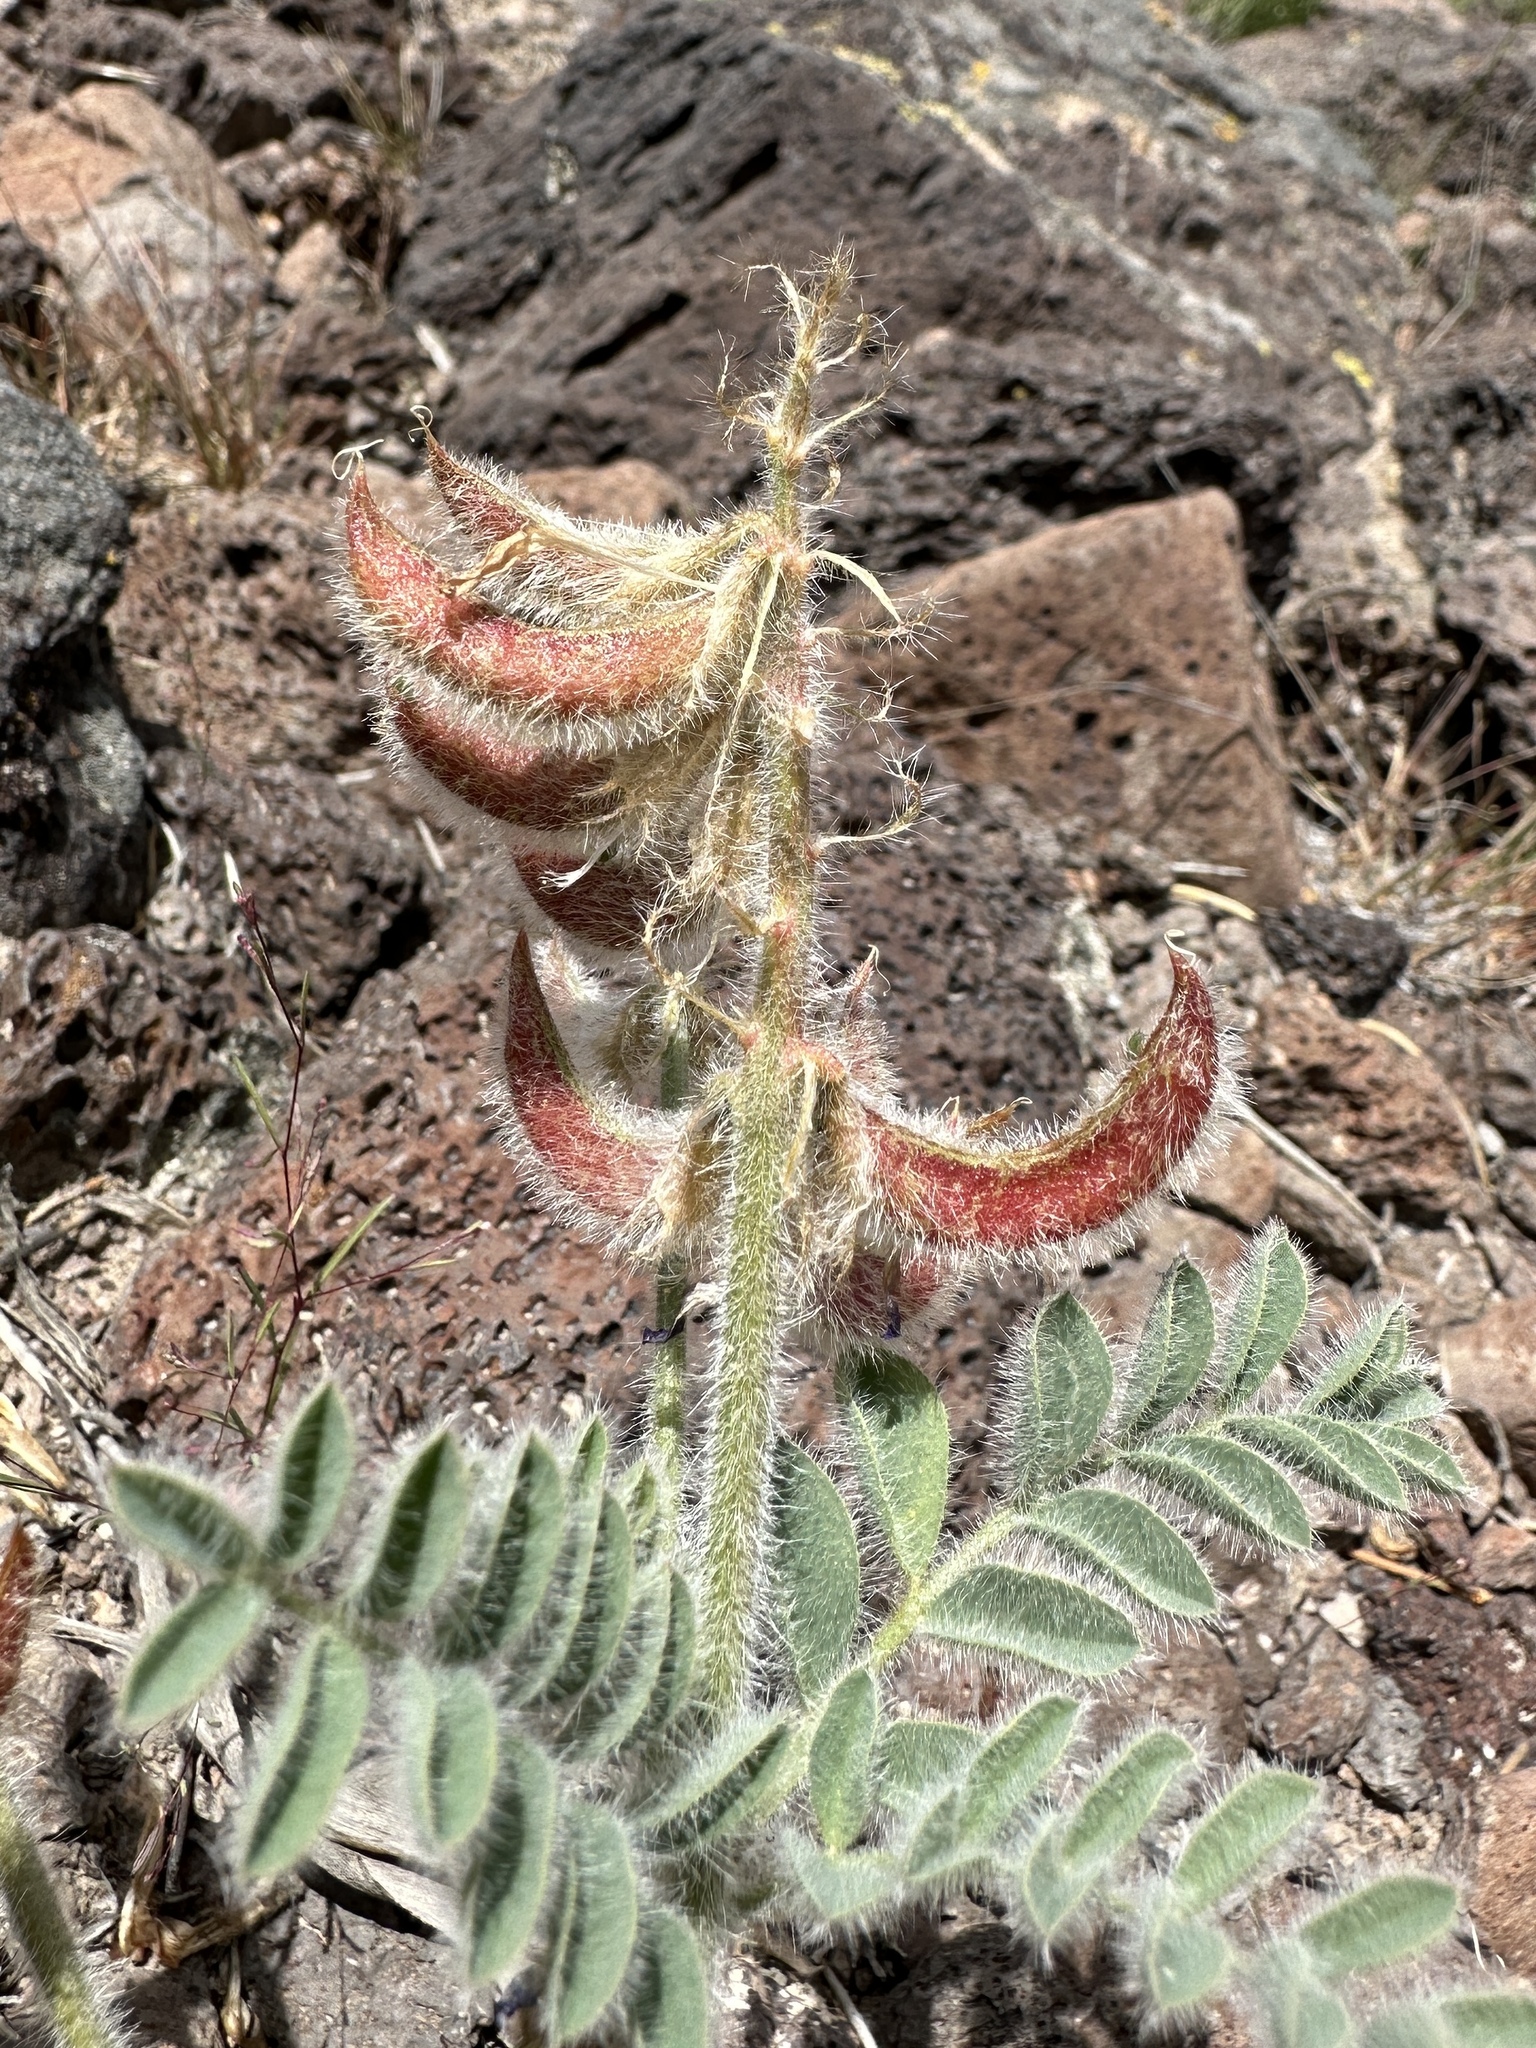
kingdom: Plantae
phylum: Tracheophyta
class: Magnoliopsida
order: Fabales
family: Fabaceae
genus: Astragalus
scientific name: Astragalus malacus
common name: Shaggy milk-vetch
